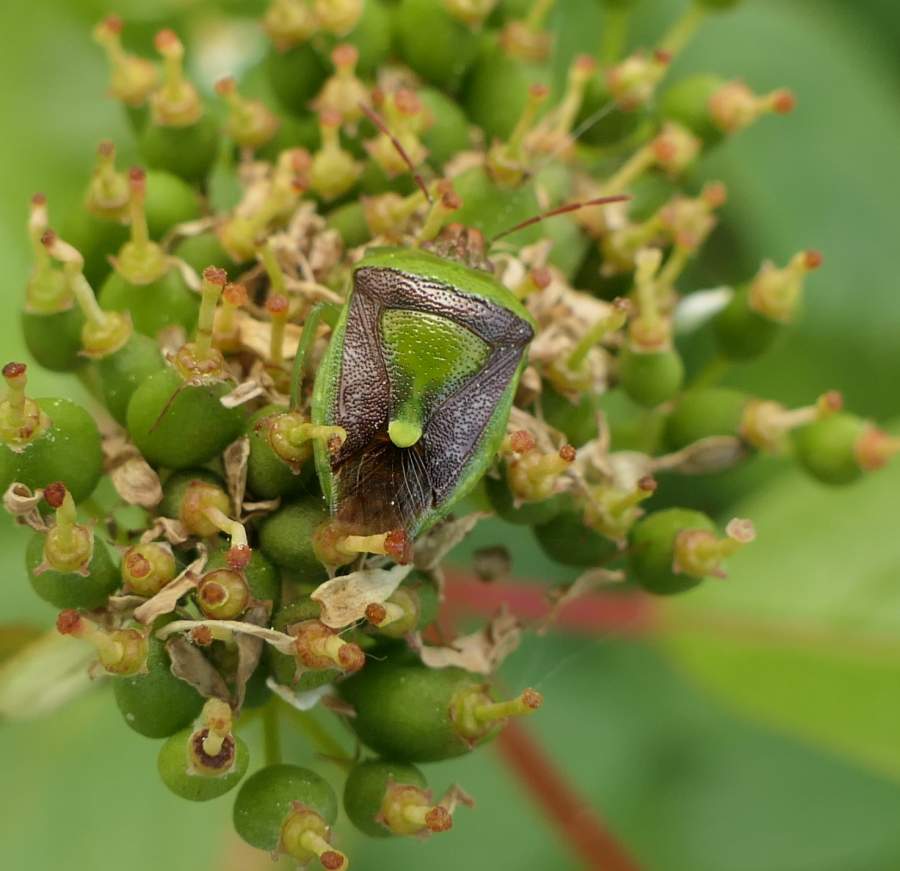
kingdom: Animalia
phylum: Arthropoda
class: Insecta
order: Hemiptera
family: Pentatomidae
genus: Banasa
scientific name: Banasa dimidiata
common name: Green burgundy stink bug
